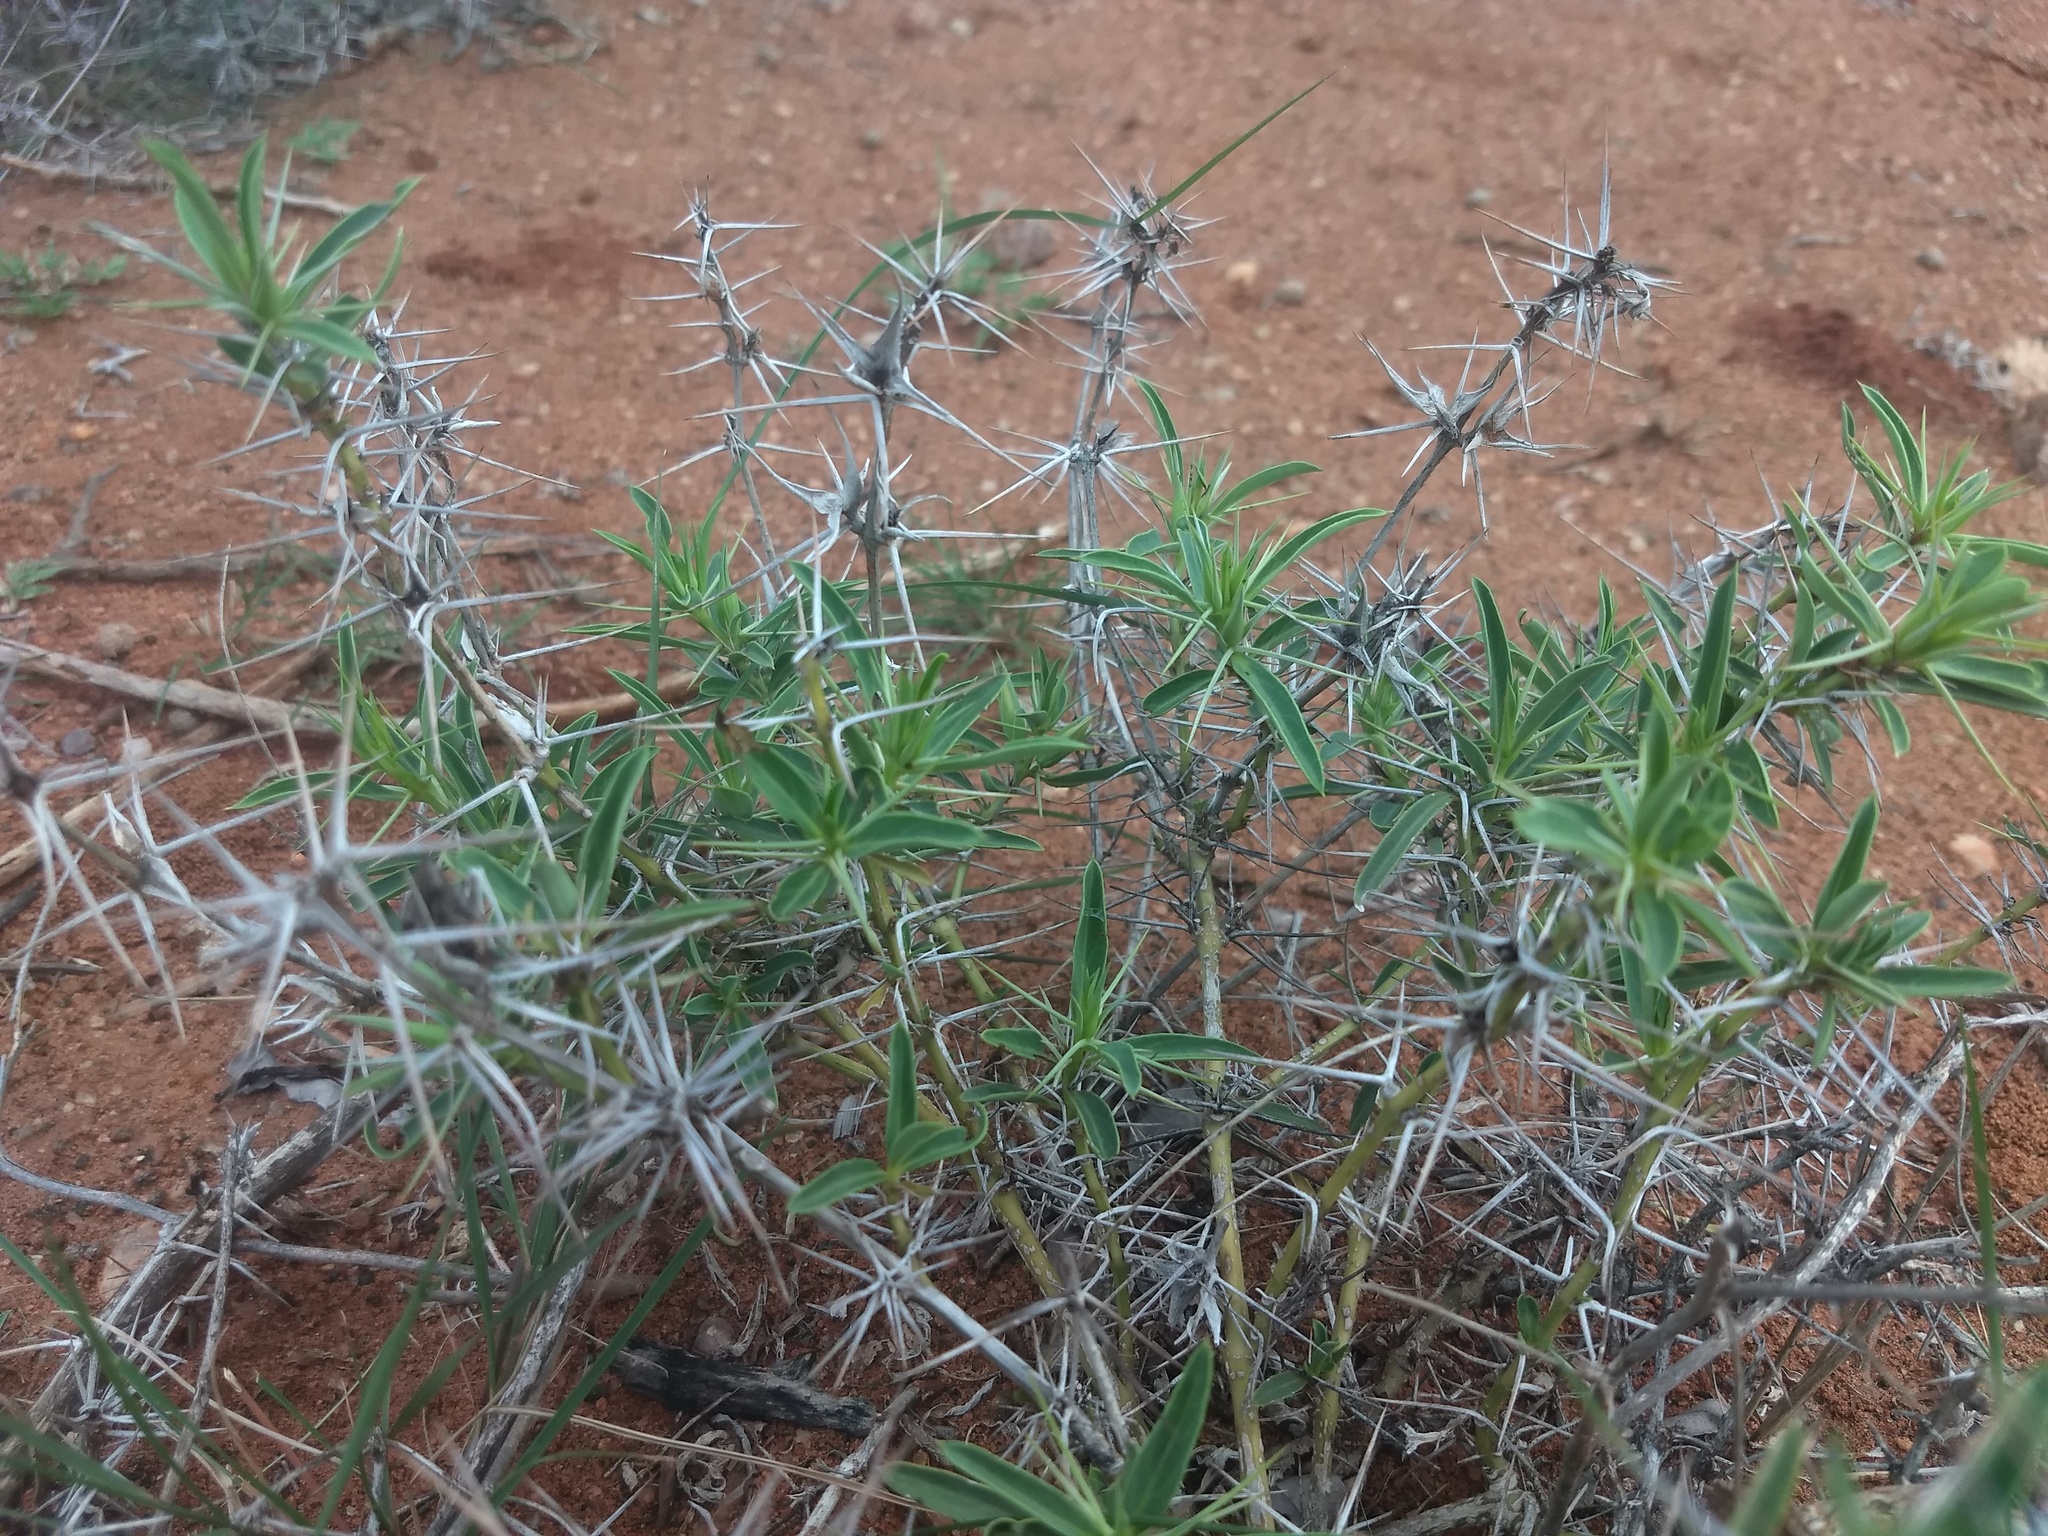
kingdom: Plantae
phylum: Tracheophyta
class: Magnoliopsida
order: Lamiales
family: Acanthaceae
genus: Barleria
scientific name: Barleria cuspidata
